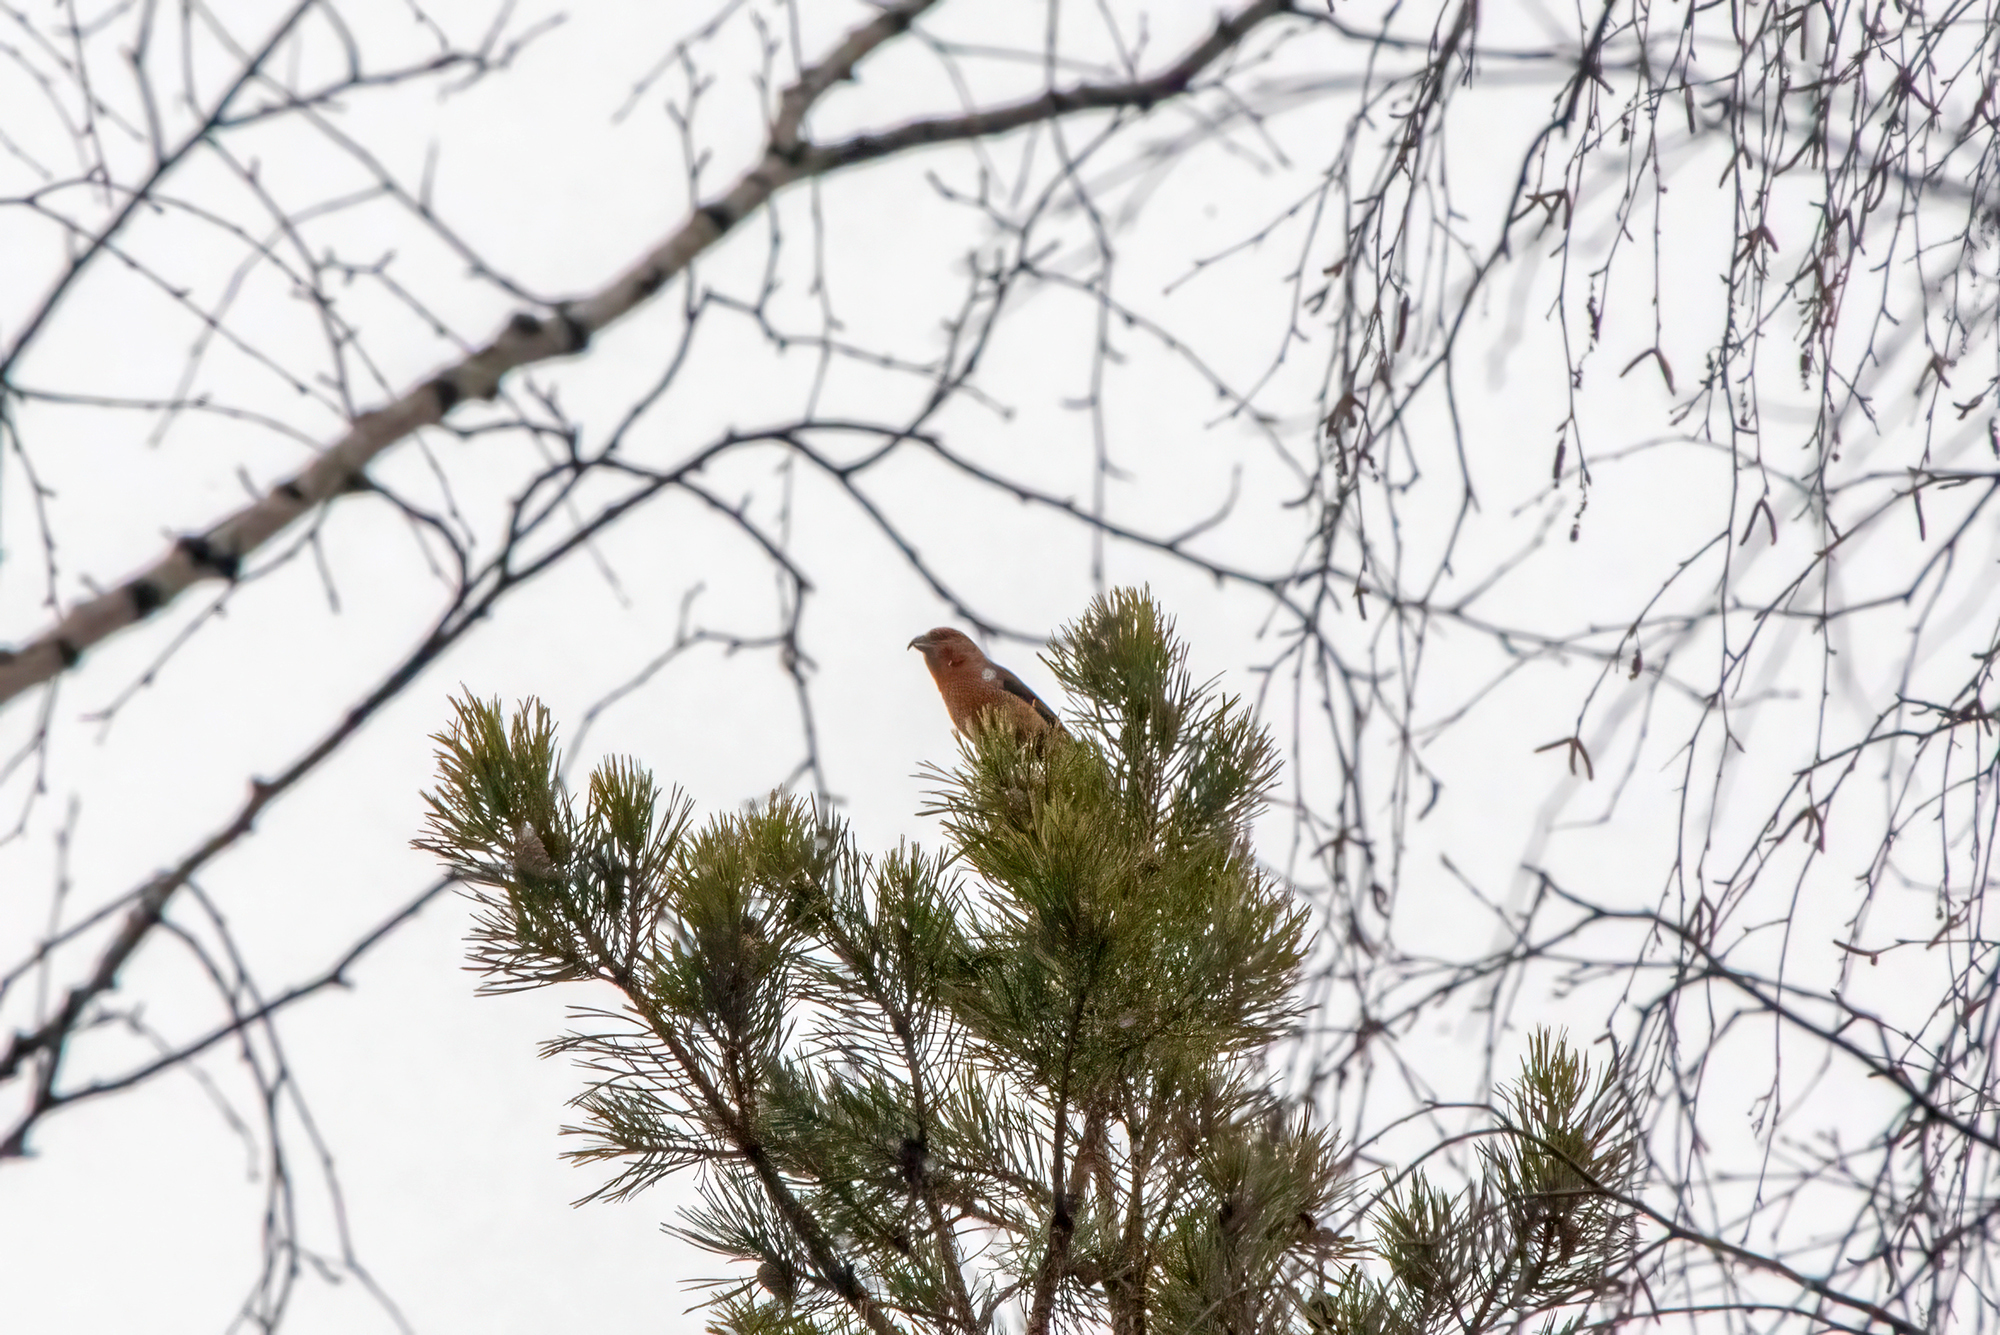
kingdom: Animalia
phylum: Chordata
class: Aves
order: Passeriformes
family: Fringillidae
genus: Loxia
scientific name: Loxia curvirostra
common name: Red crossbill
